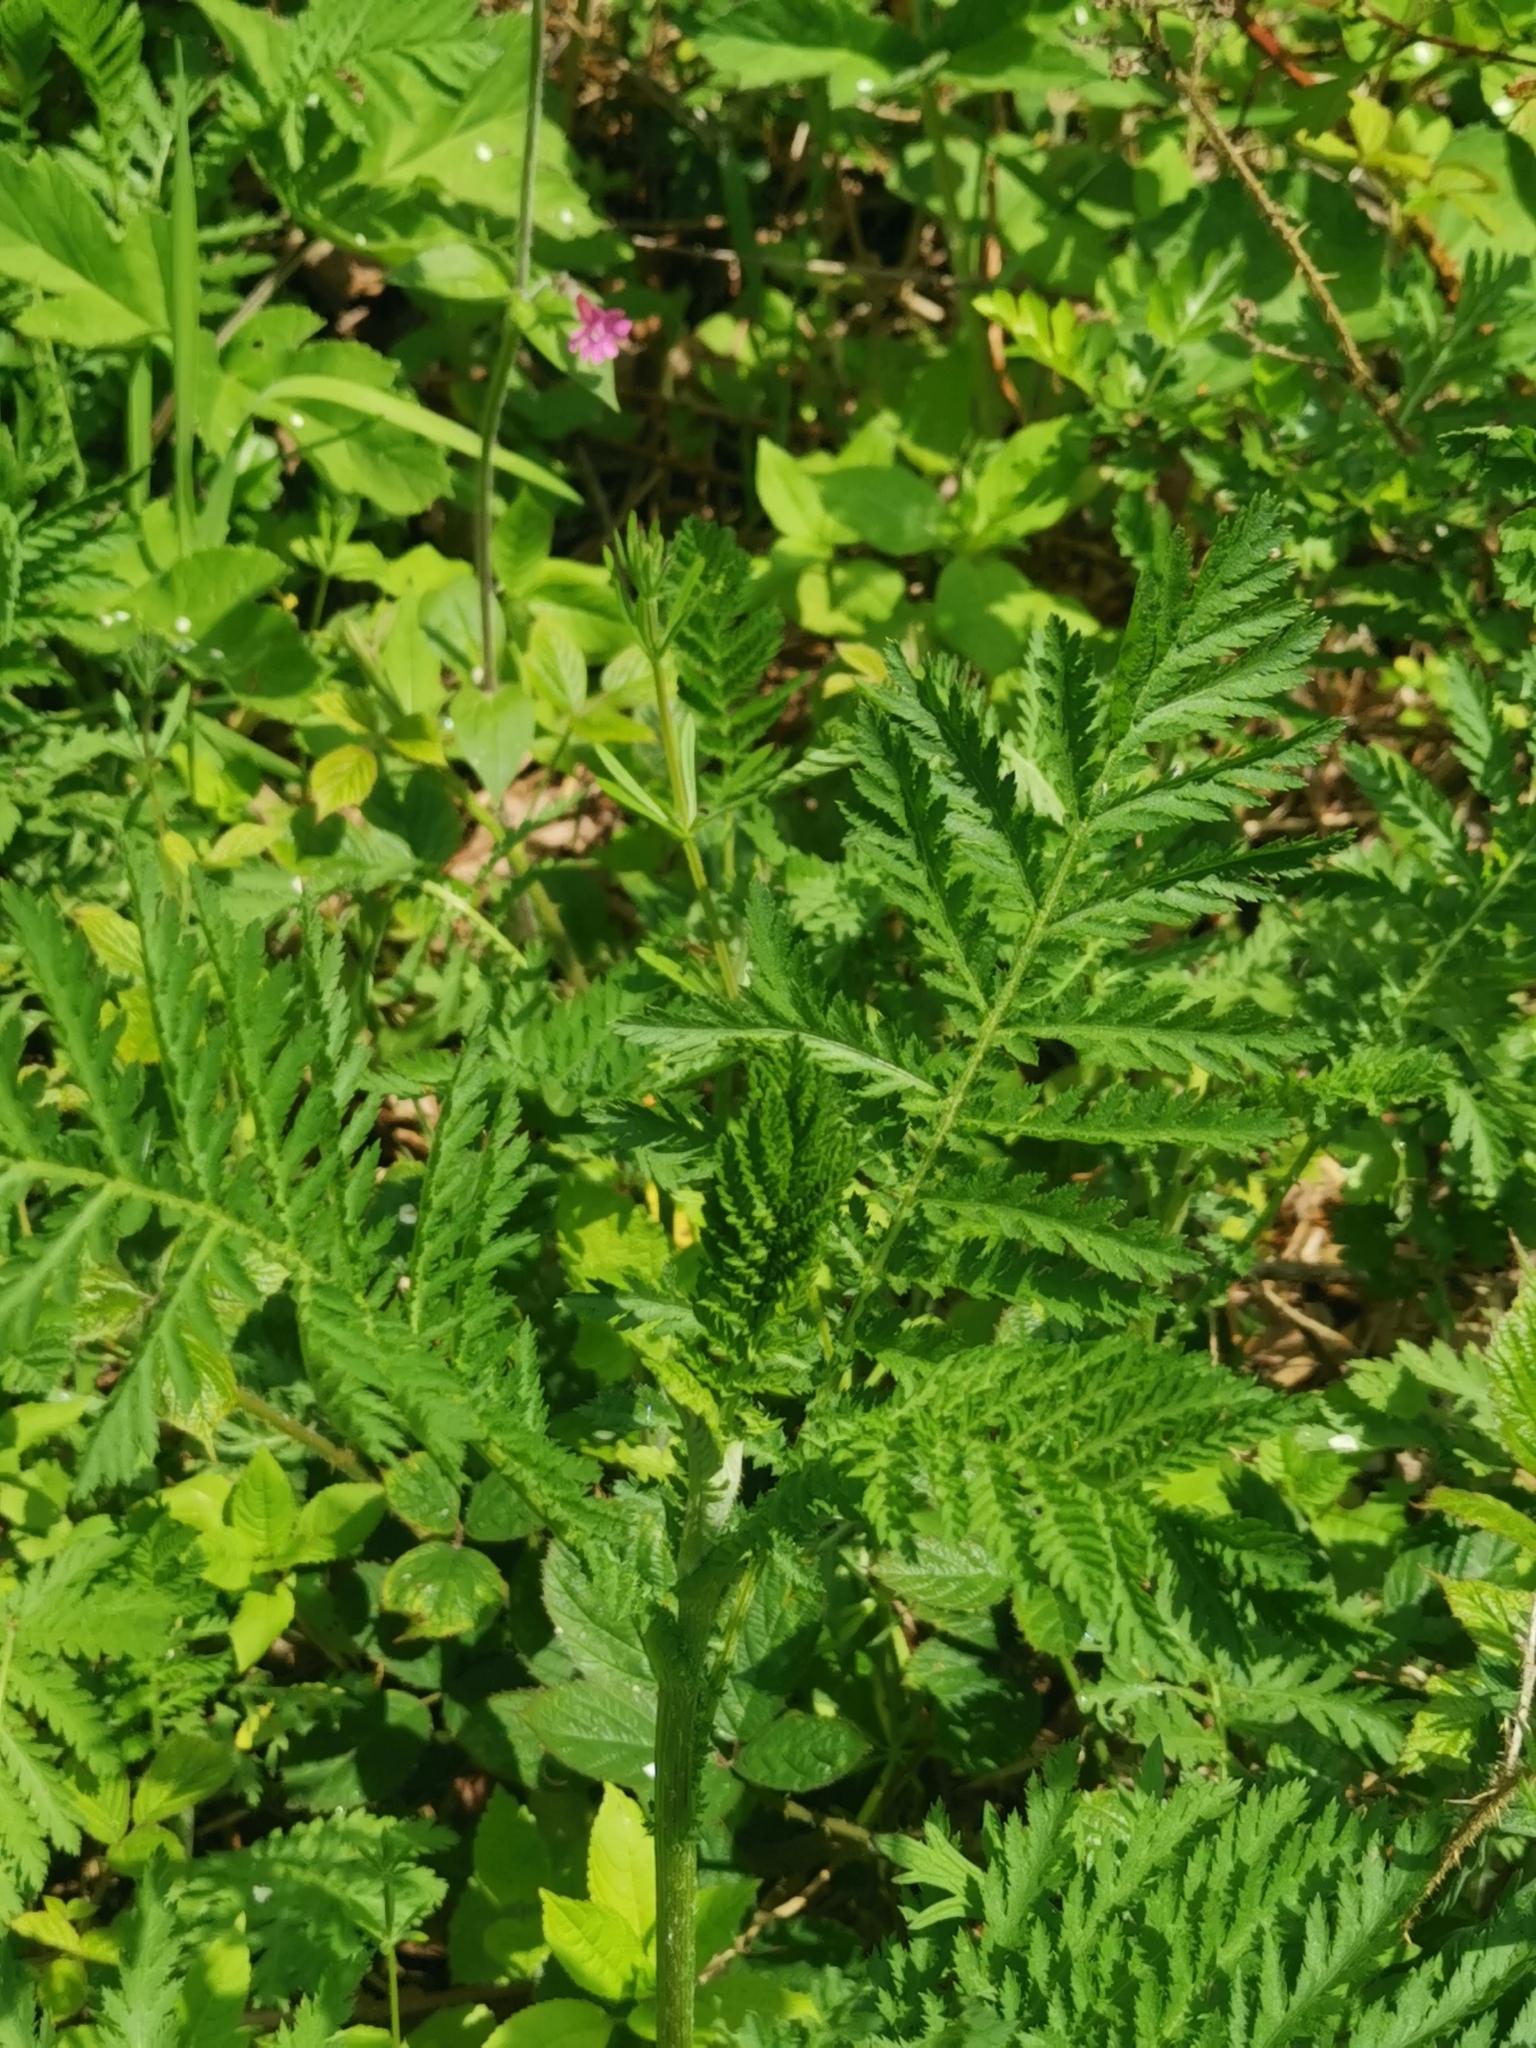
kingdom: Plantae
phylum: Tracheophyta
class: Magnoliopsida
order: Asterales
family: Asteraceae
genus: Tanacetum
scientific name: Tanacetum vulgare
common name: Common tansy
